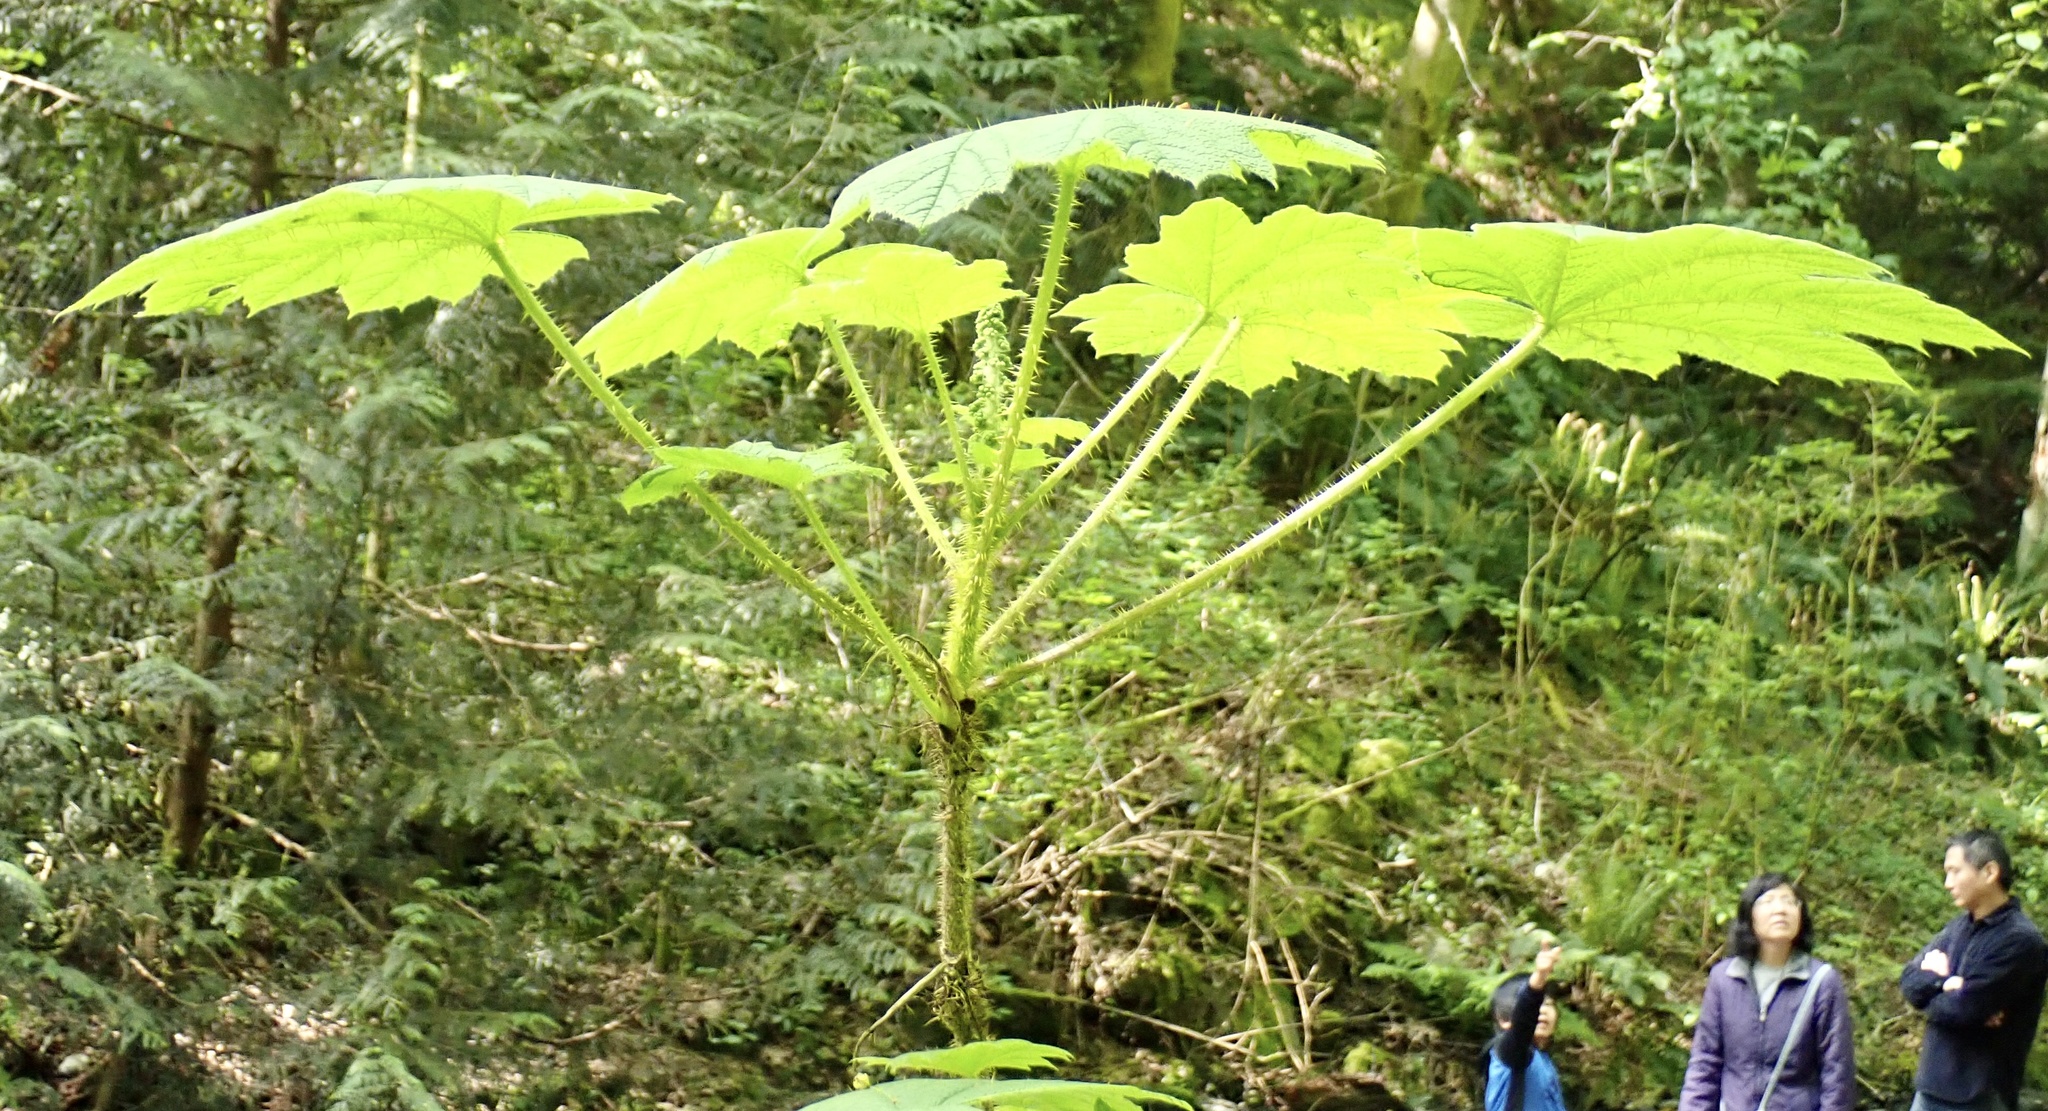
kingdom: Plantae
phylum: Tracheophyta
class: Magnoliopsida
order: Apiales
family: Araliaceae
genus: Oplopanax
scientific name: Oplopanax horridus
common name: Devil's walking-stick
